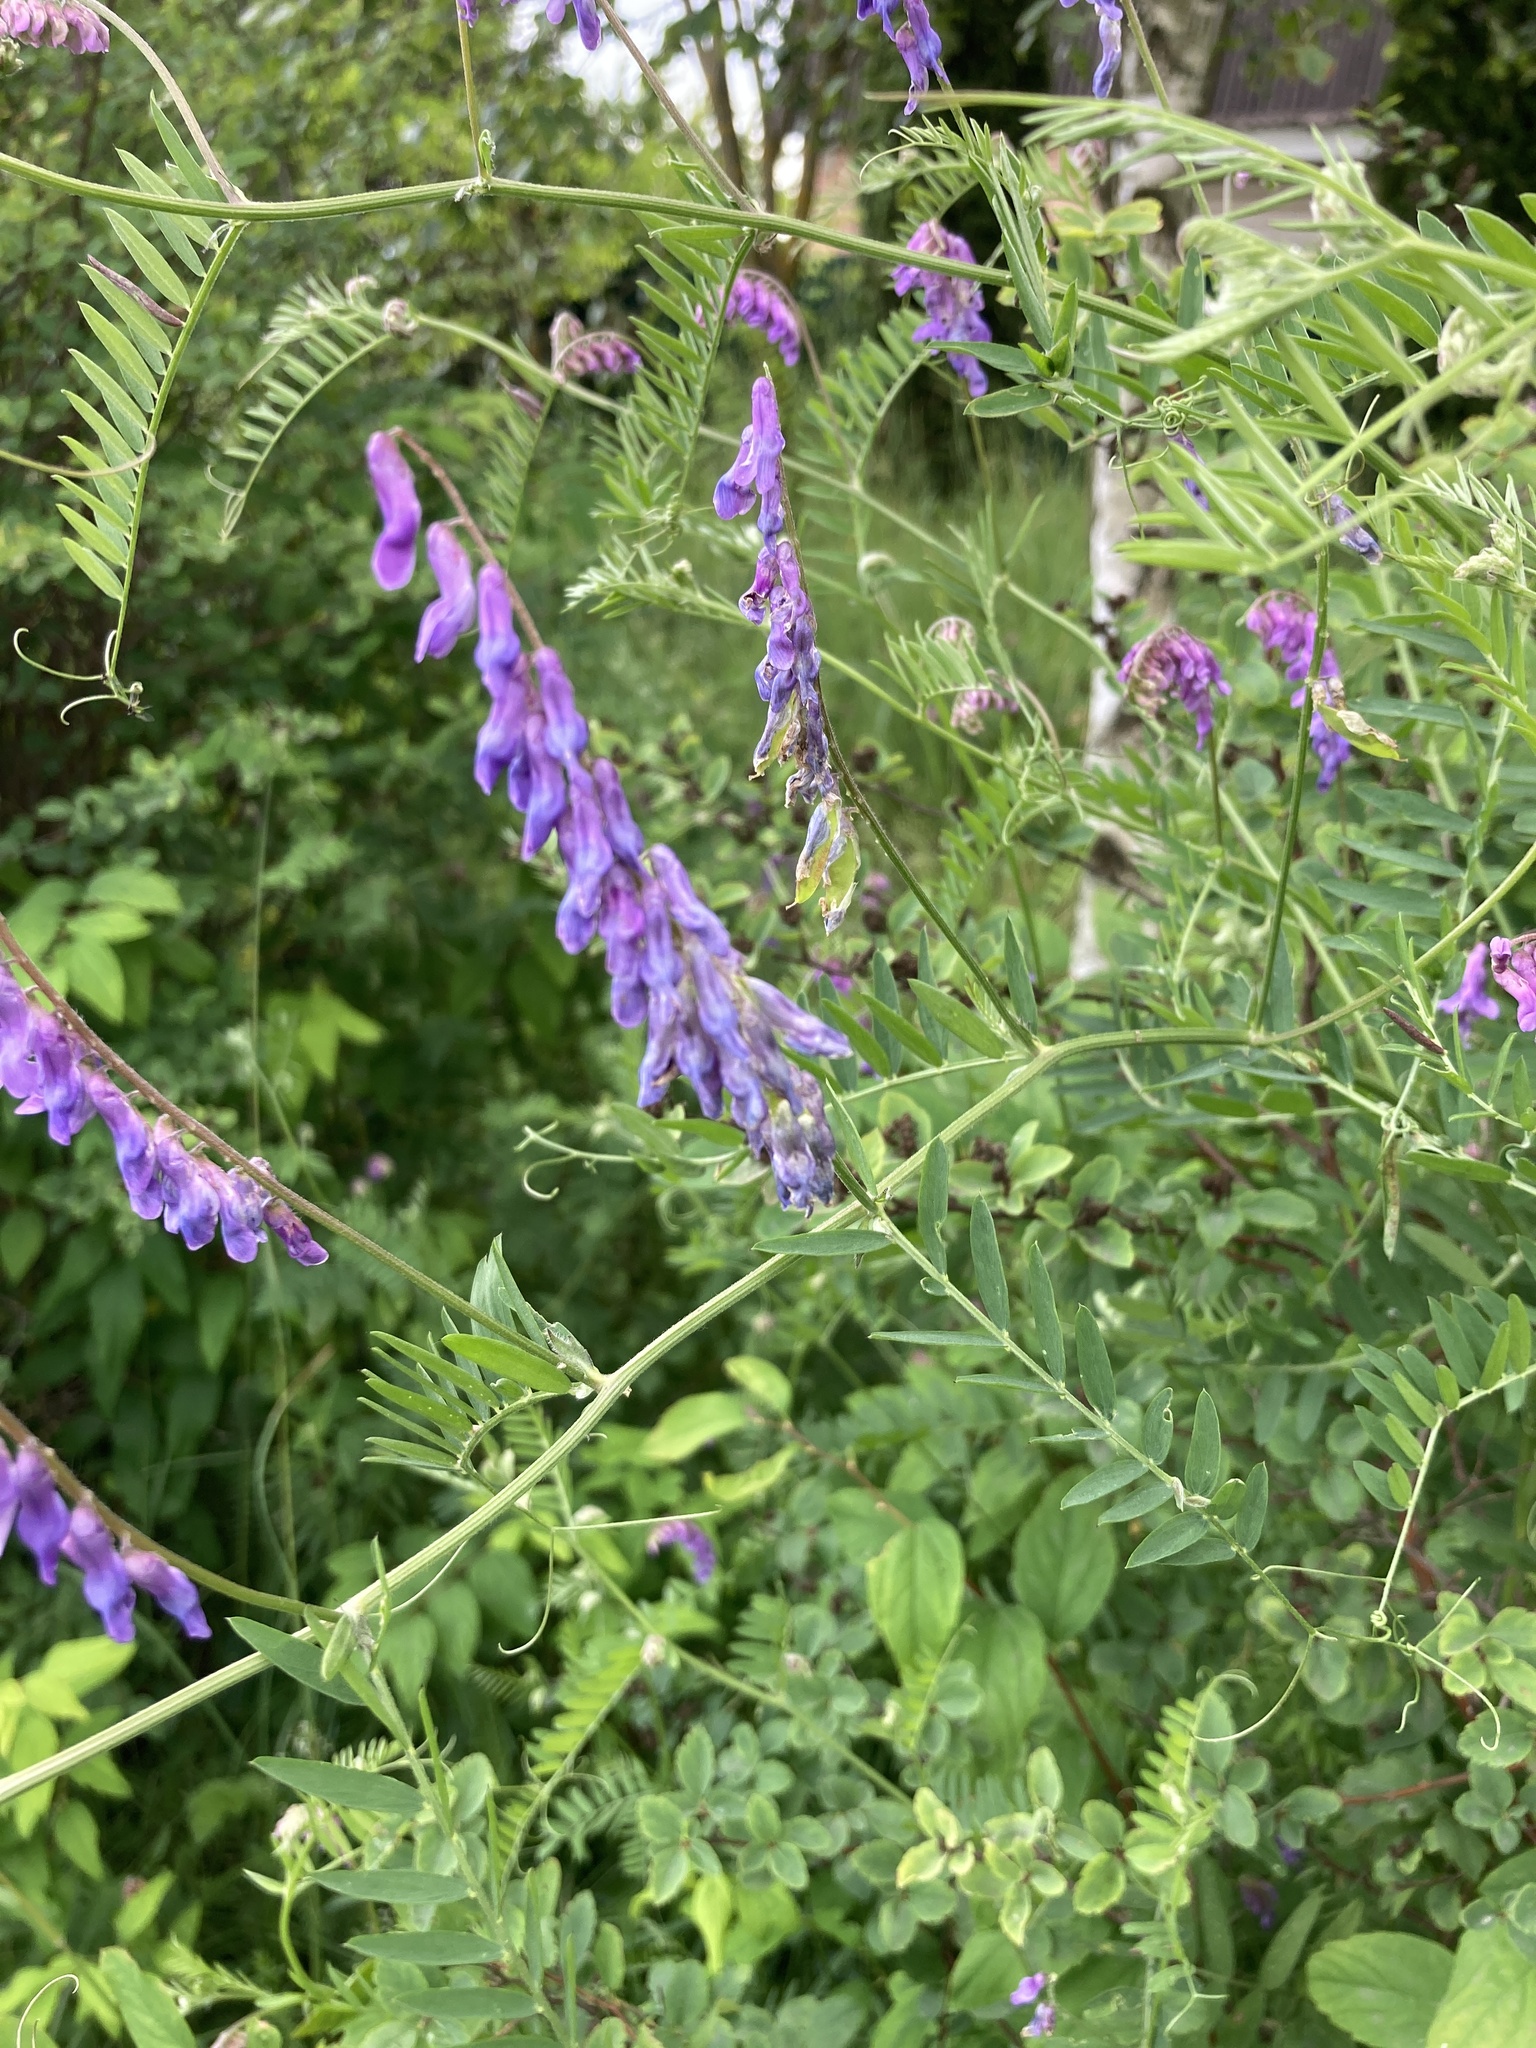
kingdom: Plantae
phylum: Tracheophyta
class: Magnoliopsida
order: Fabales
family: Fabaceae
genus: Vicia
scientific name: Vicia cracca
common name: Bird vetch
